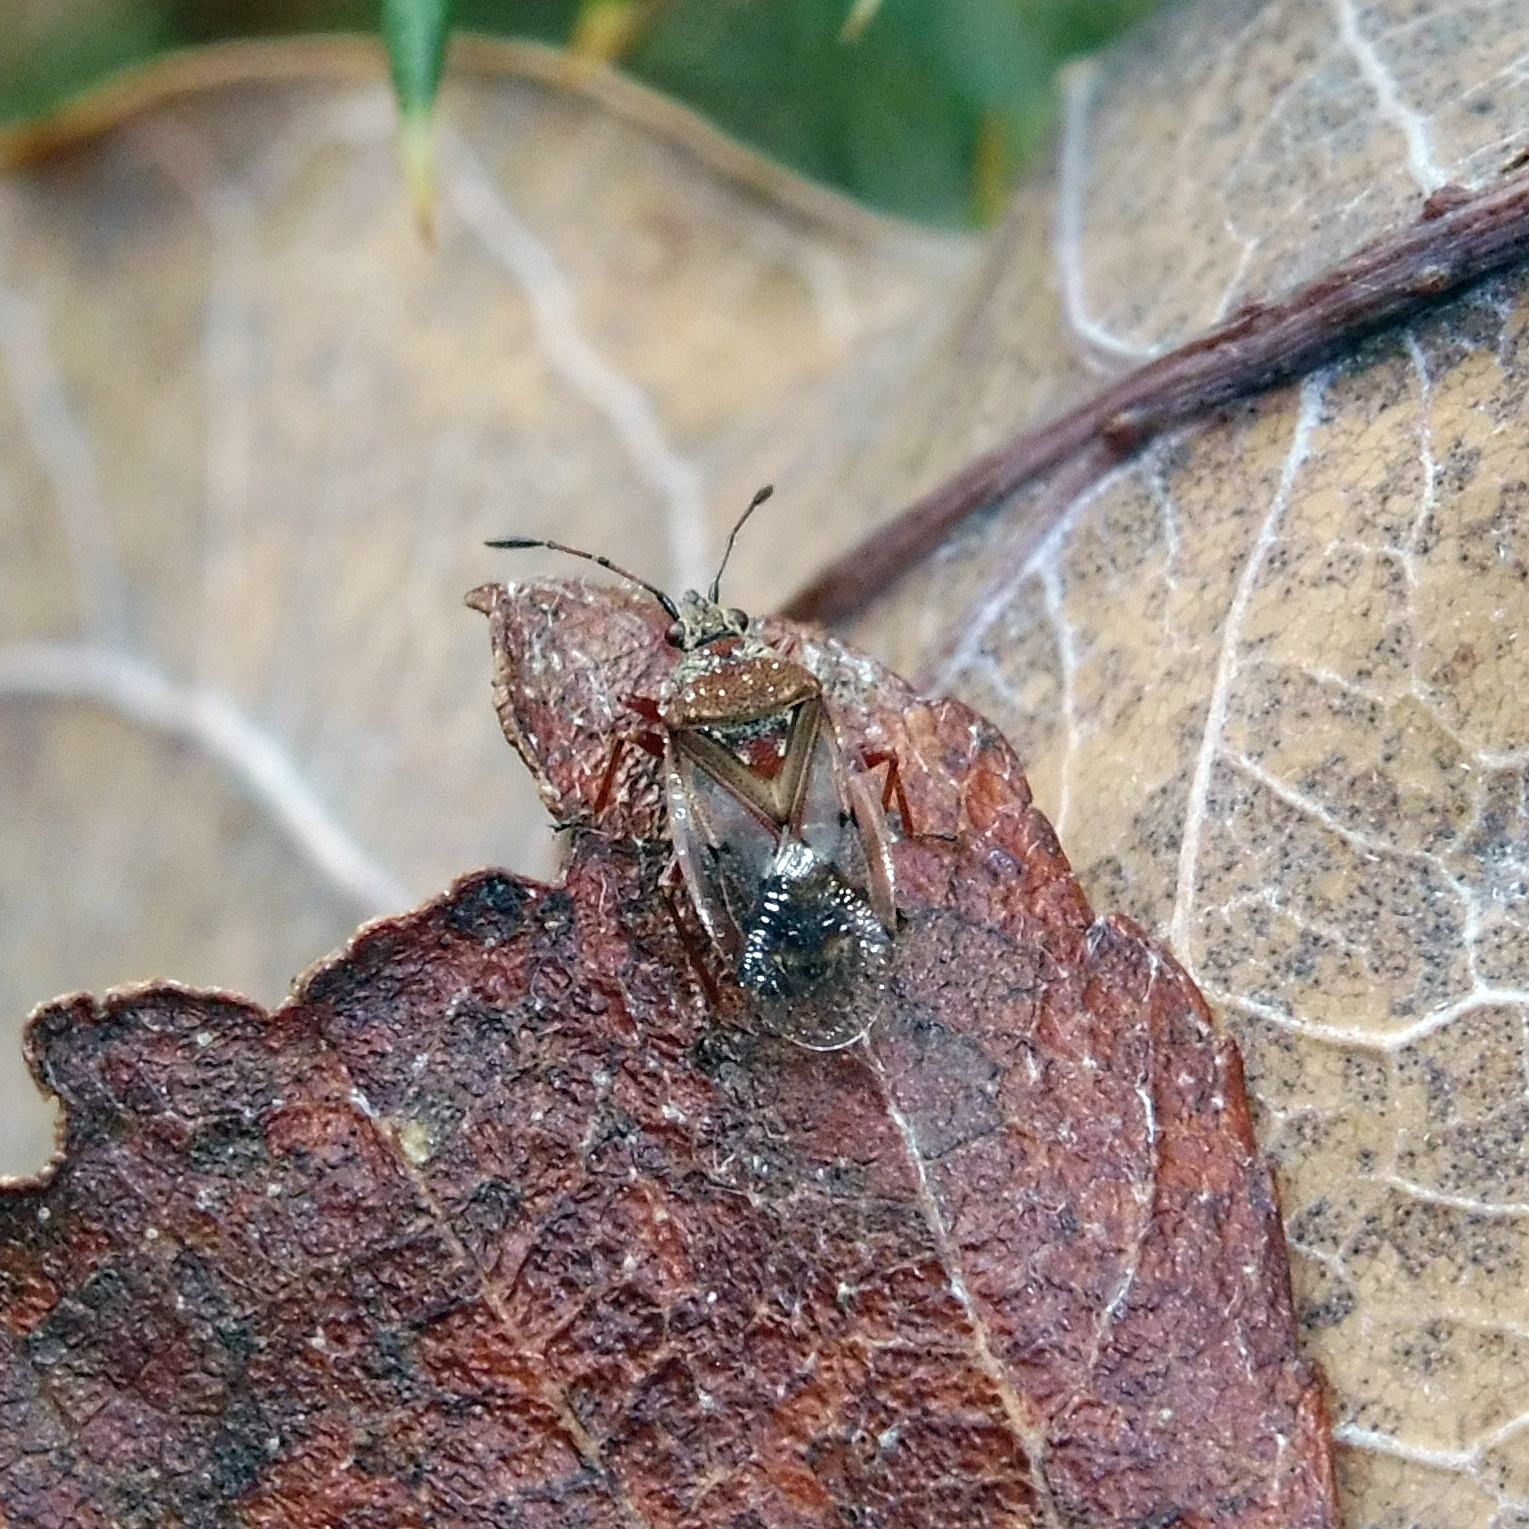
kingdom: Animalia
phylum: Arthropoda
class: Insecta
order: Hemiptera
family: Lygaeidae
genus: Kleidocerys
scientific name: Kleidocerys resedae
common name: Birch catkin bug
